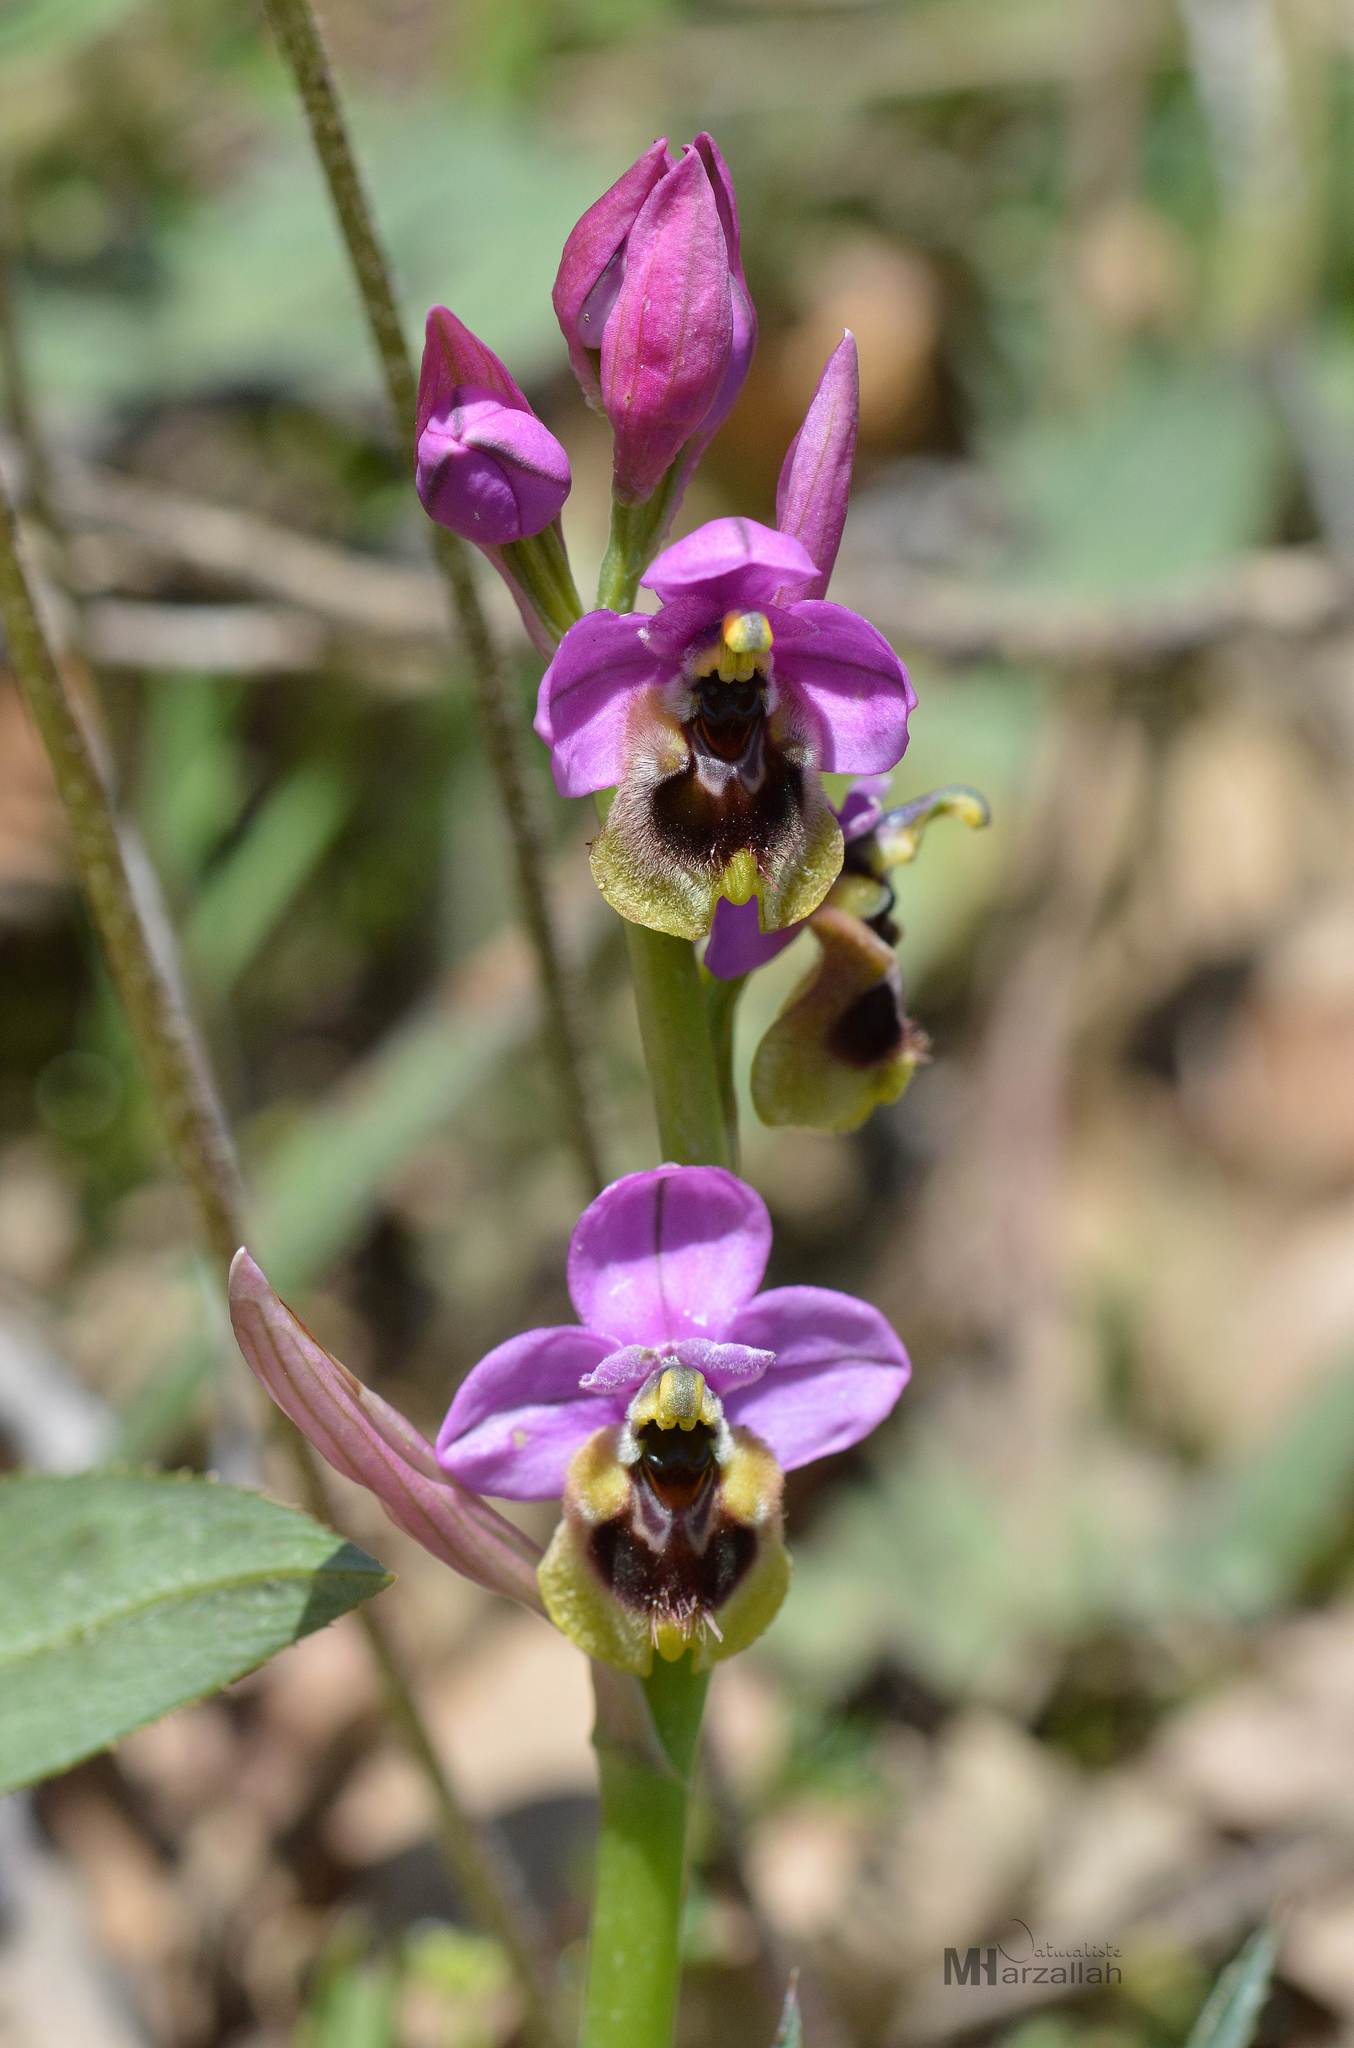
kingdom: Plantae
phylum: Tracheophyta
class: Liliopsida
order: Asparagales
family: Orchidaceae
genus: Ophrys
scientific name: Ophrys tenthredinifera
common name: Sawfly orchid
